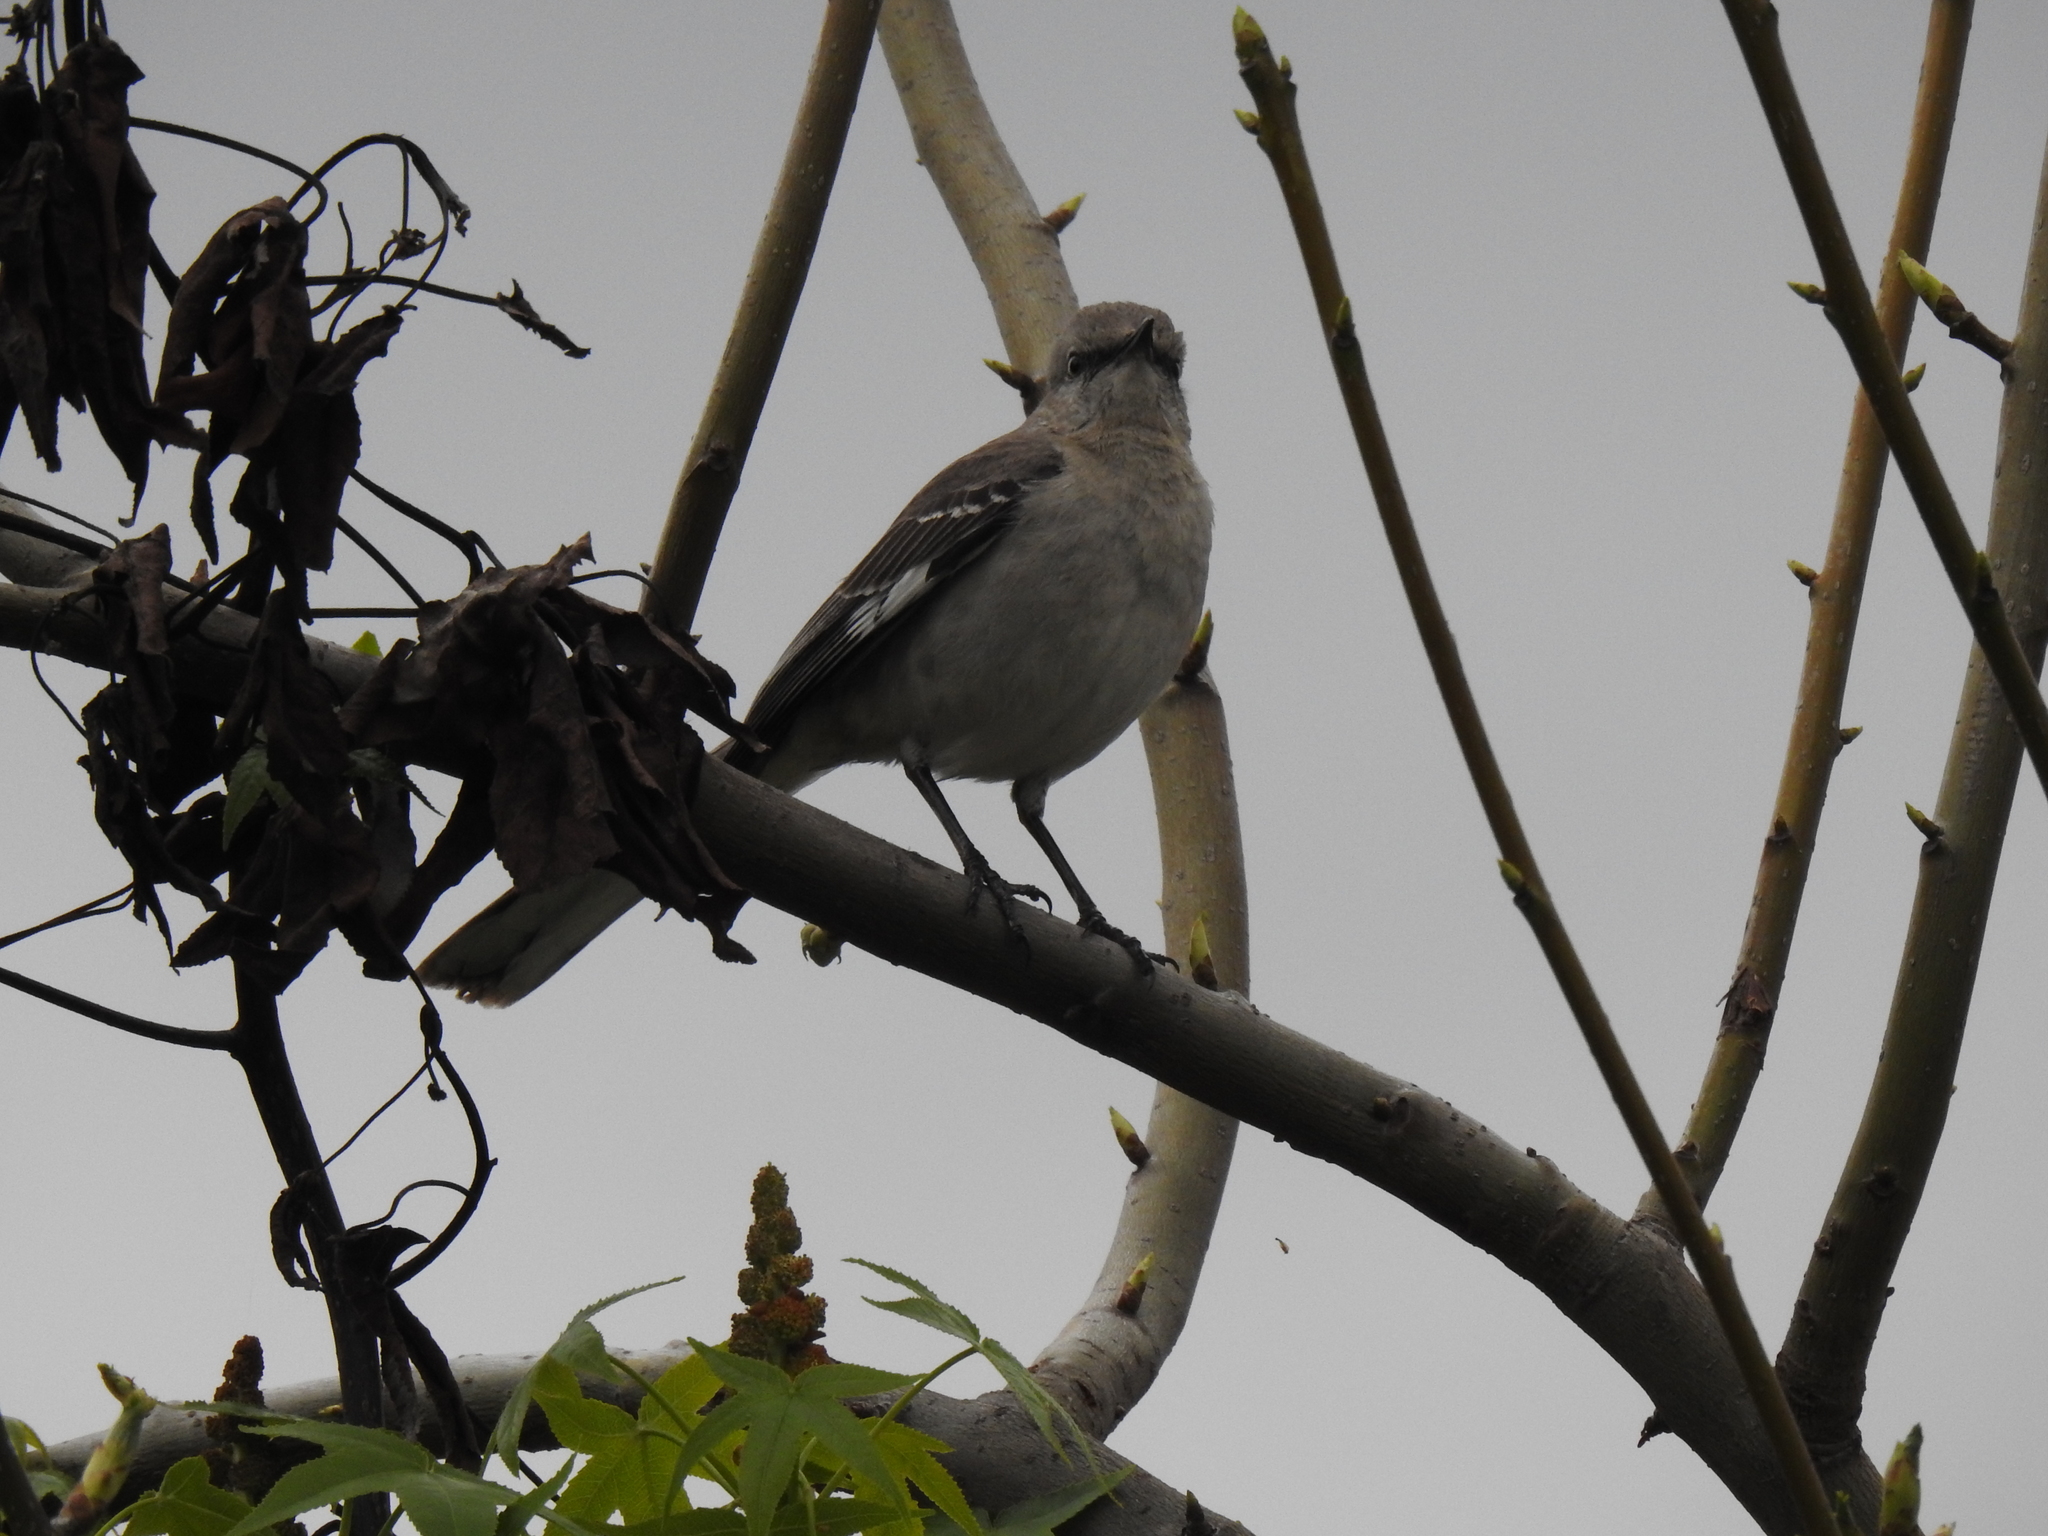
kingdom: Animalia
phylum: Chordata
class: Aves
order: Passeriformes
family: Mimidae
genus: Mimus
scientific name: Mimus polyglottos
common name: Northern mockingbird
